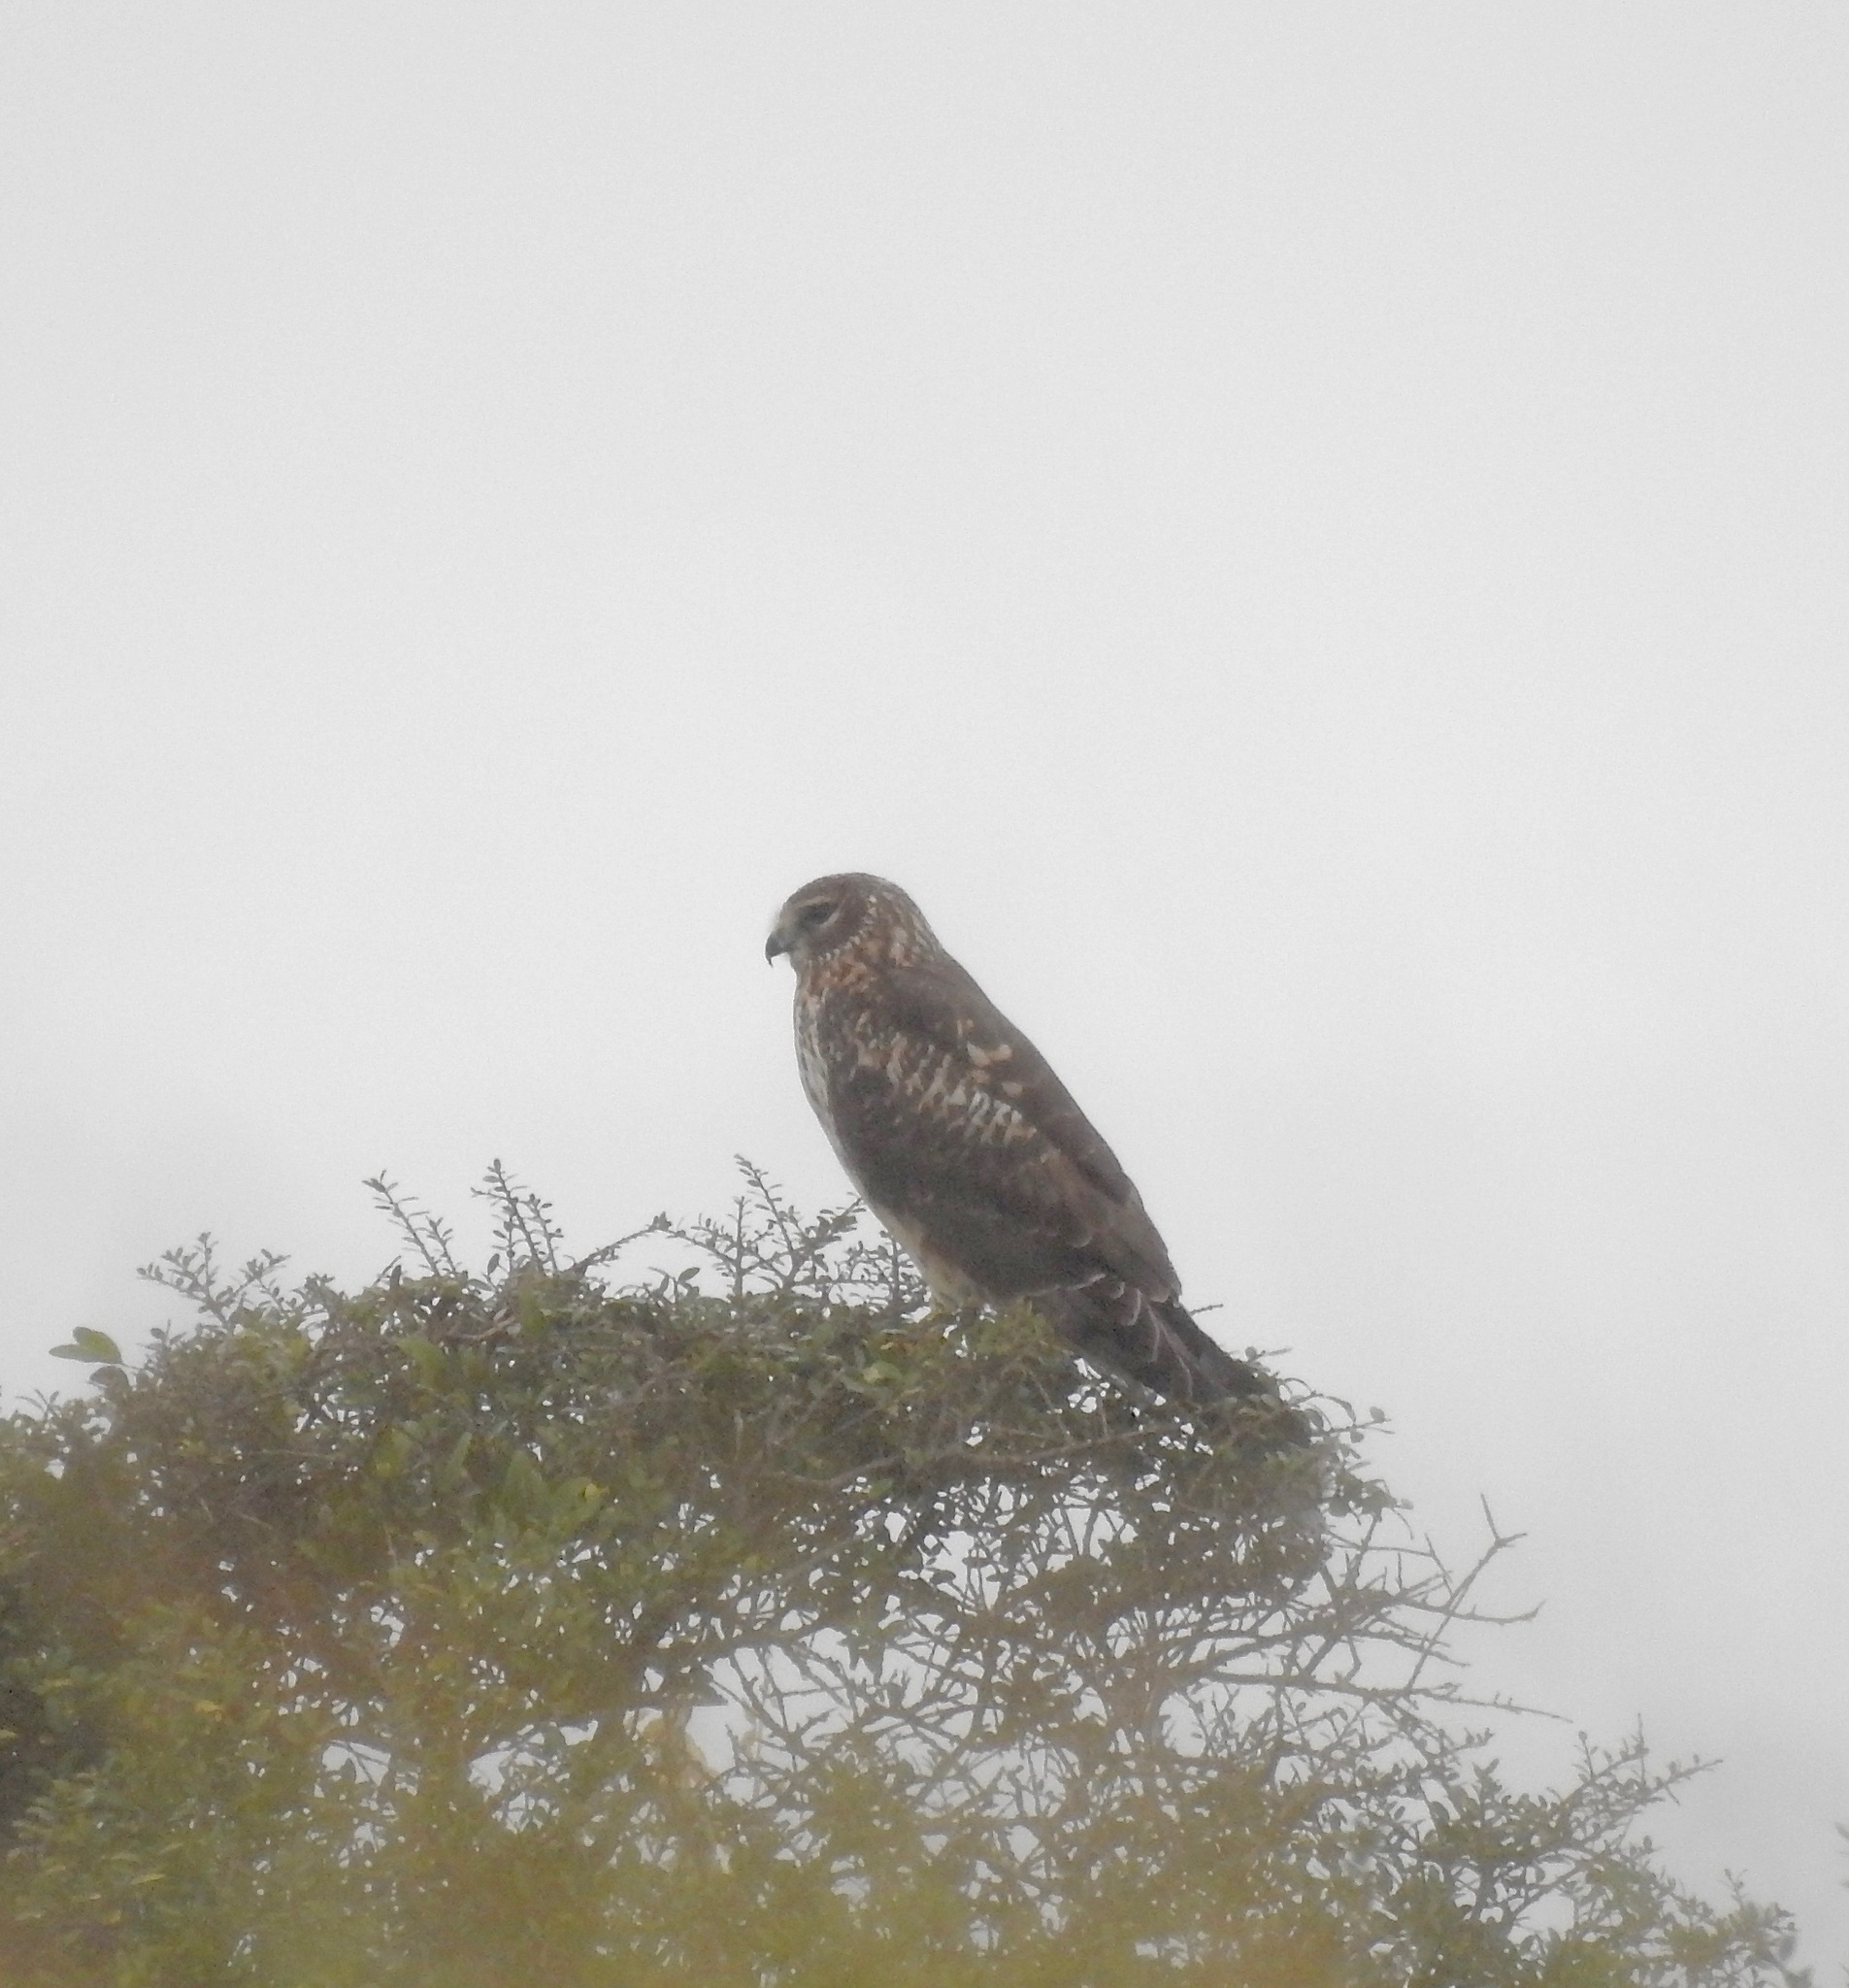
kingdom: Animalia
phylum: Chordata
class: Aves
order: Accipitriformes
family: Accipitridae
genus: Circus
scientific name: Circus cyaneus
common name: Hen harrier
